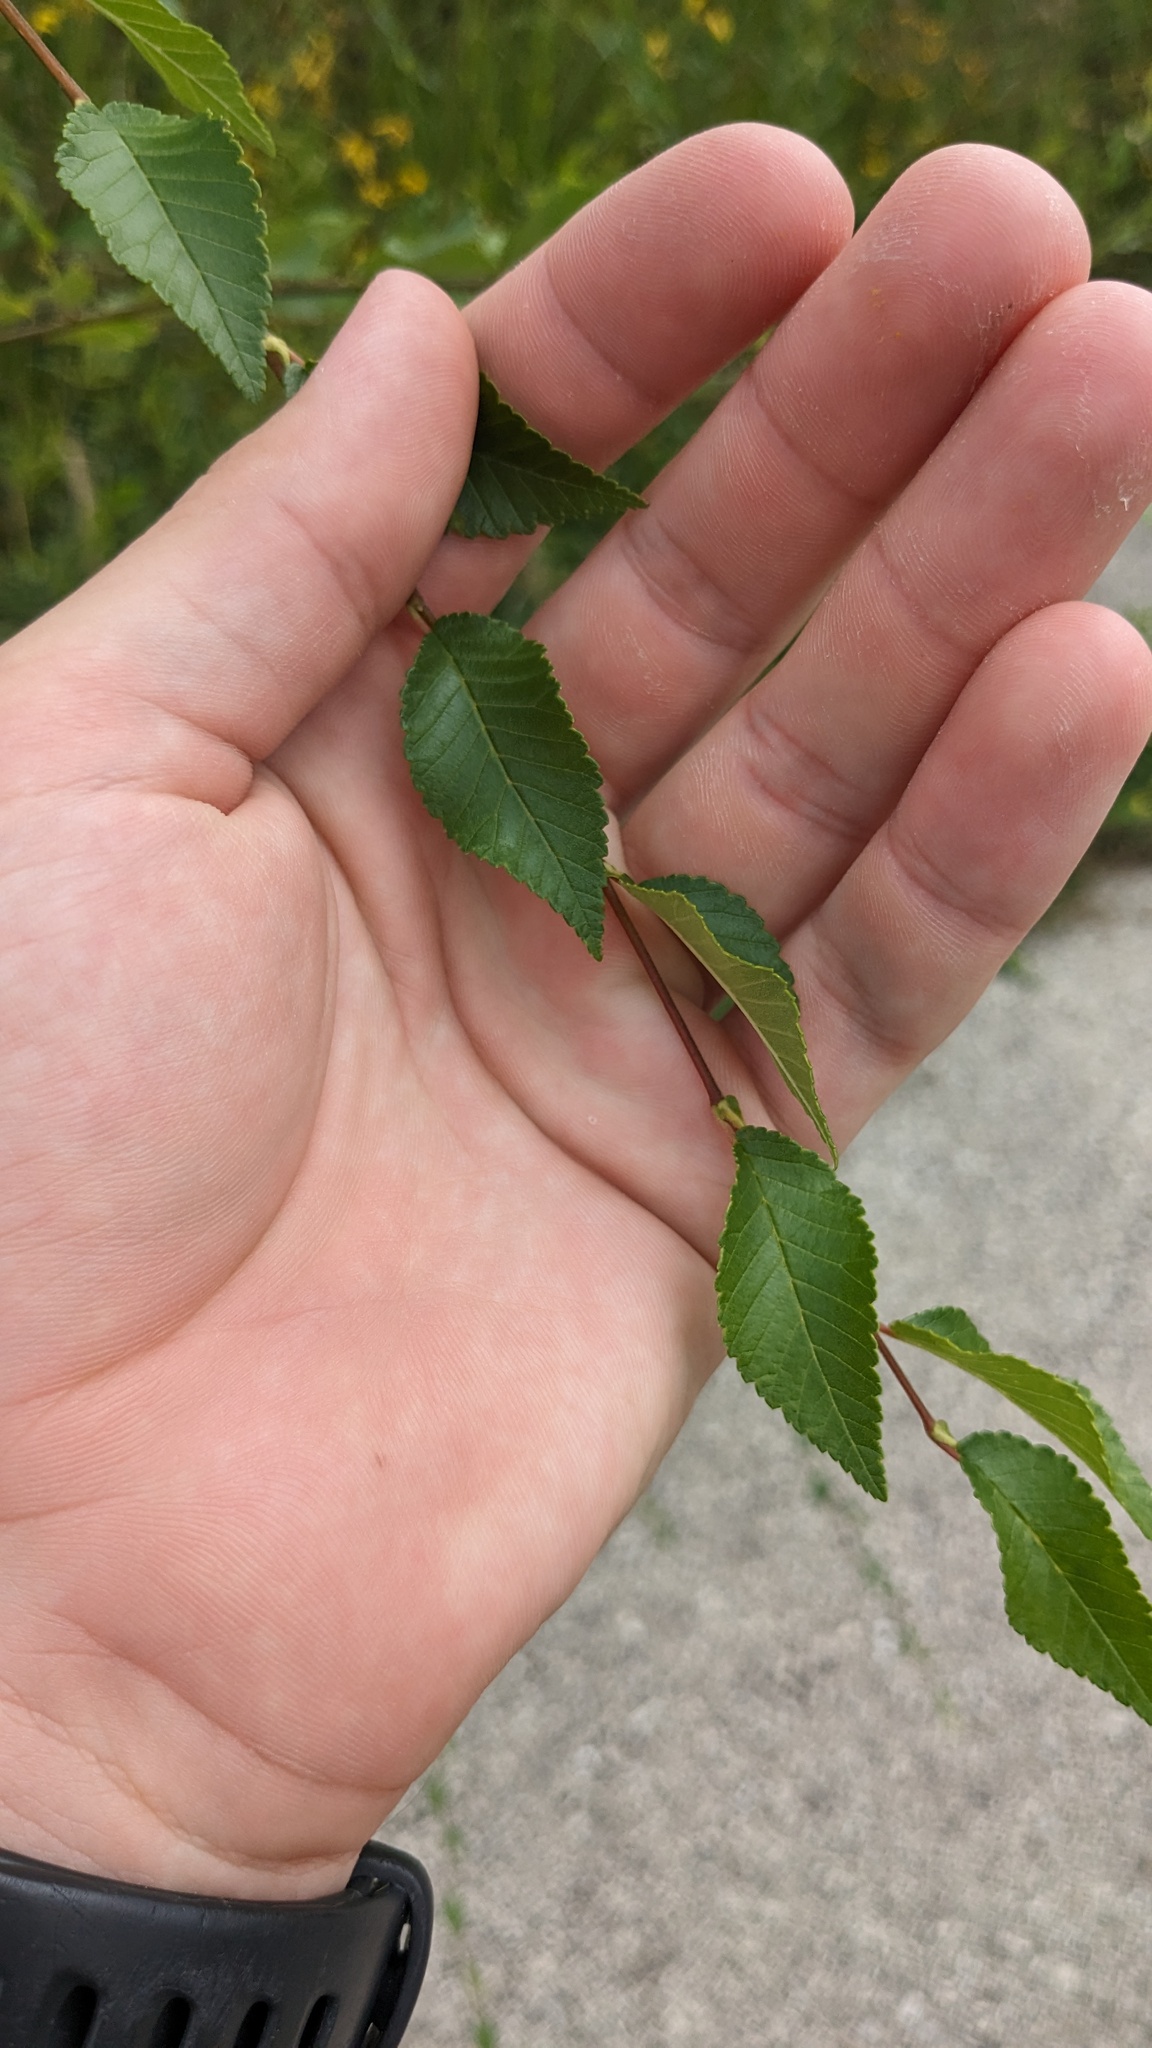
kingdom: Plantae
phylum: Tracheophyta
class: Magnoliopsida
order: Rosales
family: Ulmaceae
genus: Ulmus
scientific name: Ulmus pumila
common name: Siberian elm
